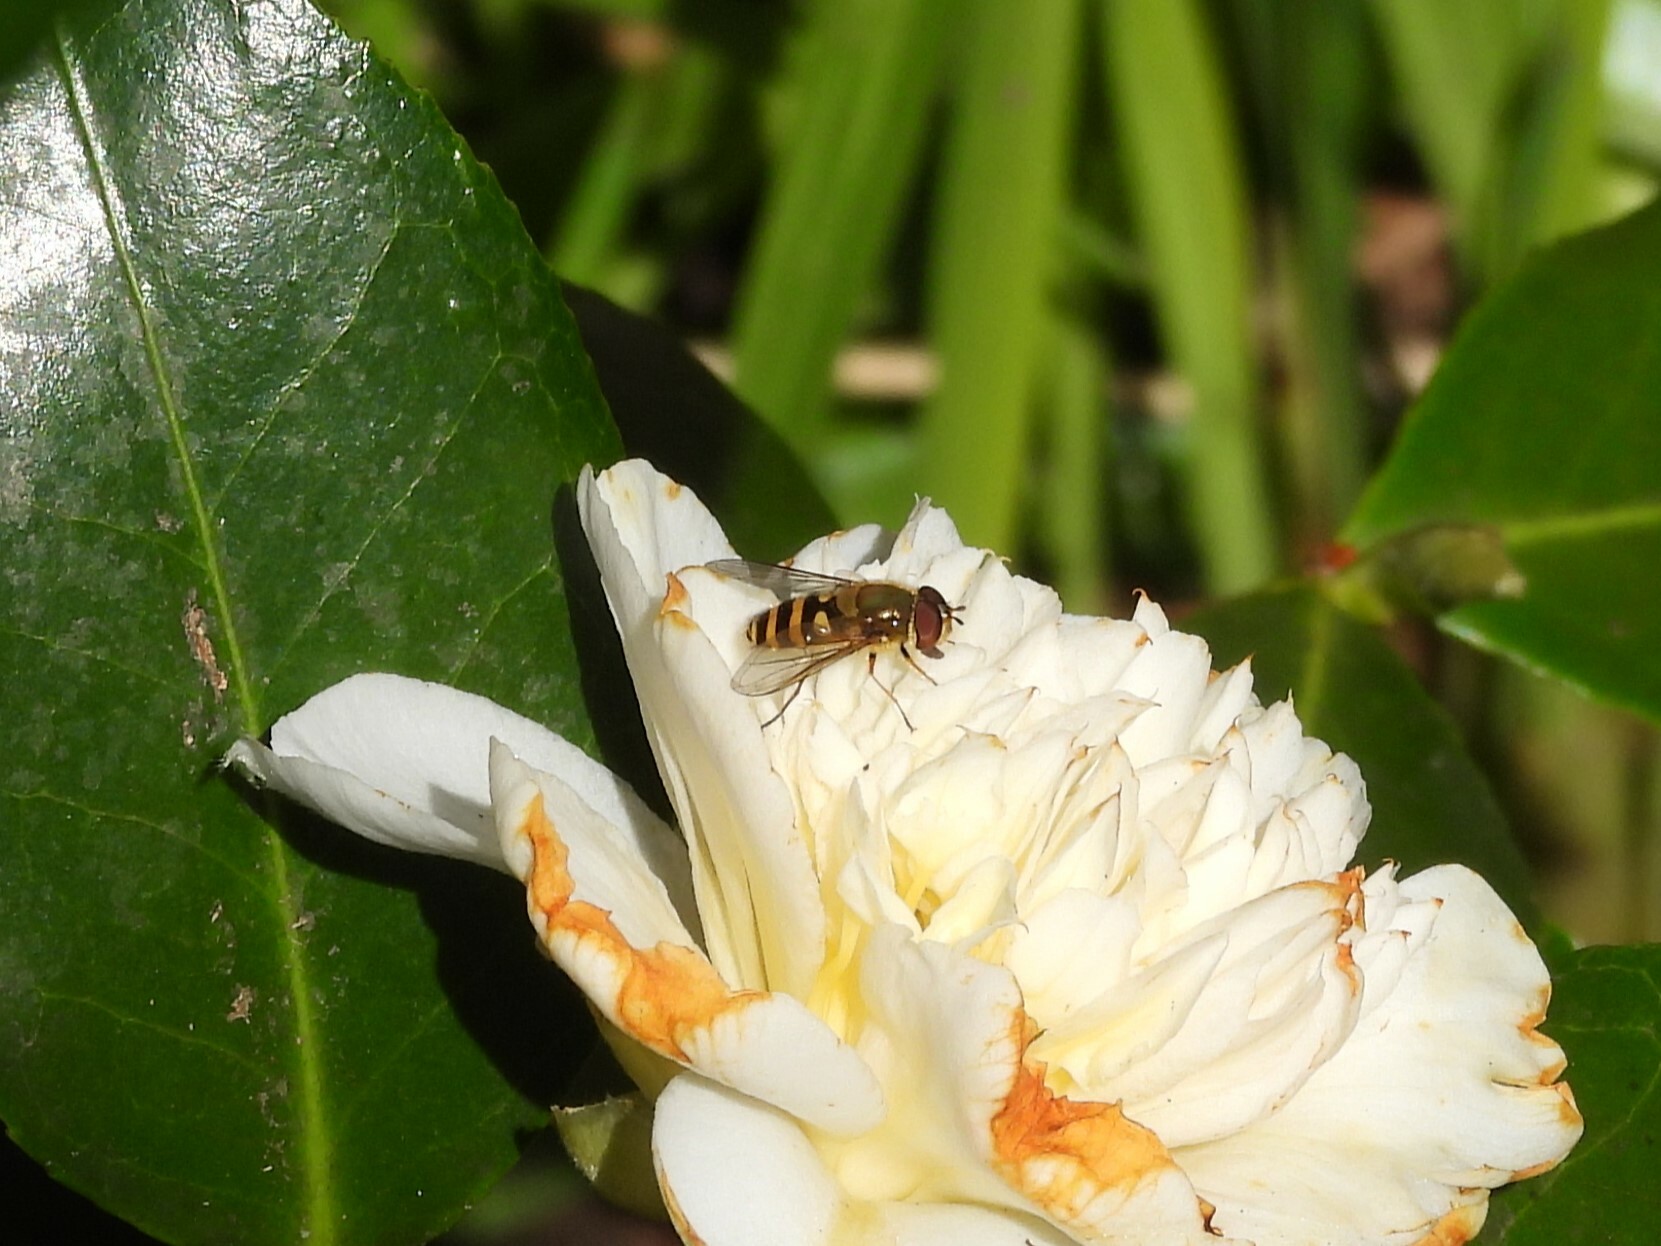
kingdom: Animalia
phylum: Arthropoda
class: Insecta
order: Diptera
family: Syrphidae
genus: Syrphus
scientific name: Syrphus
